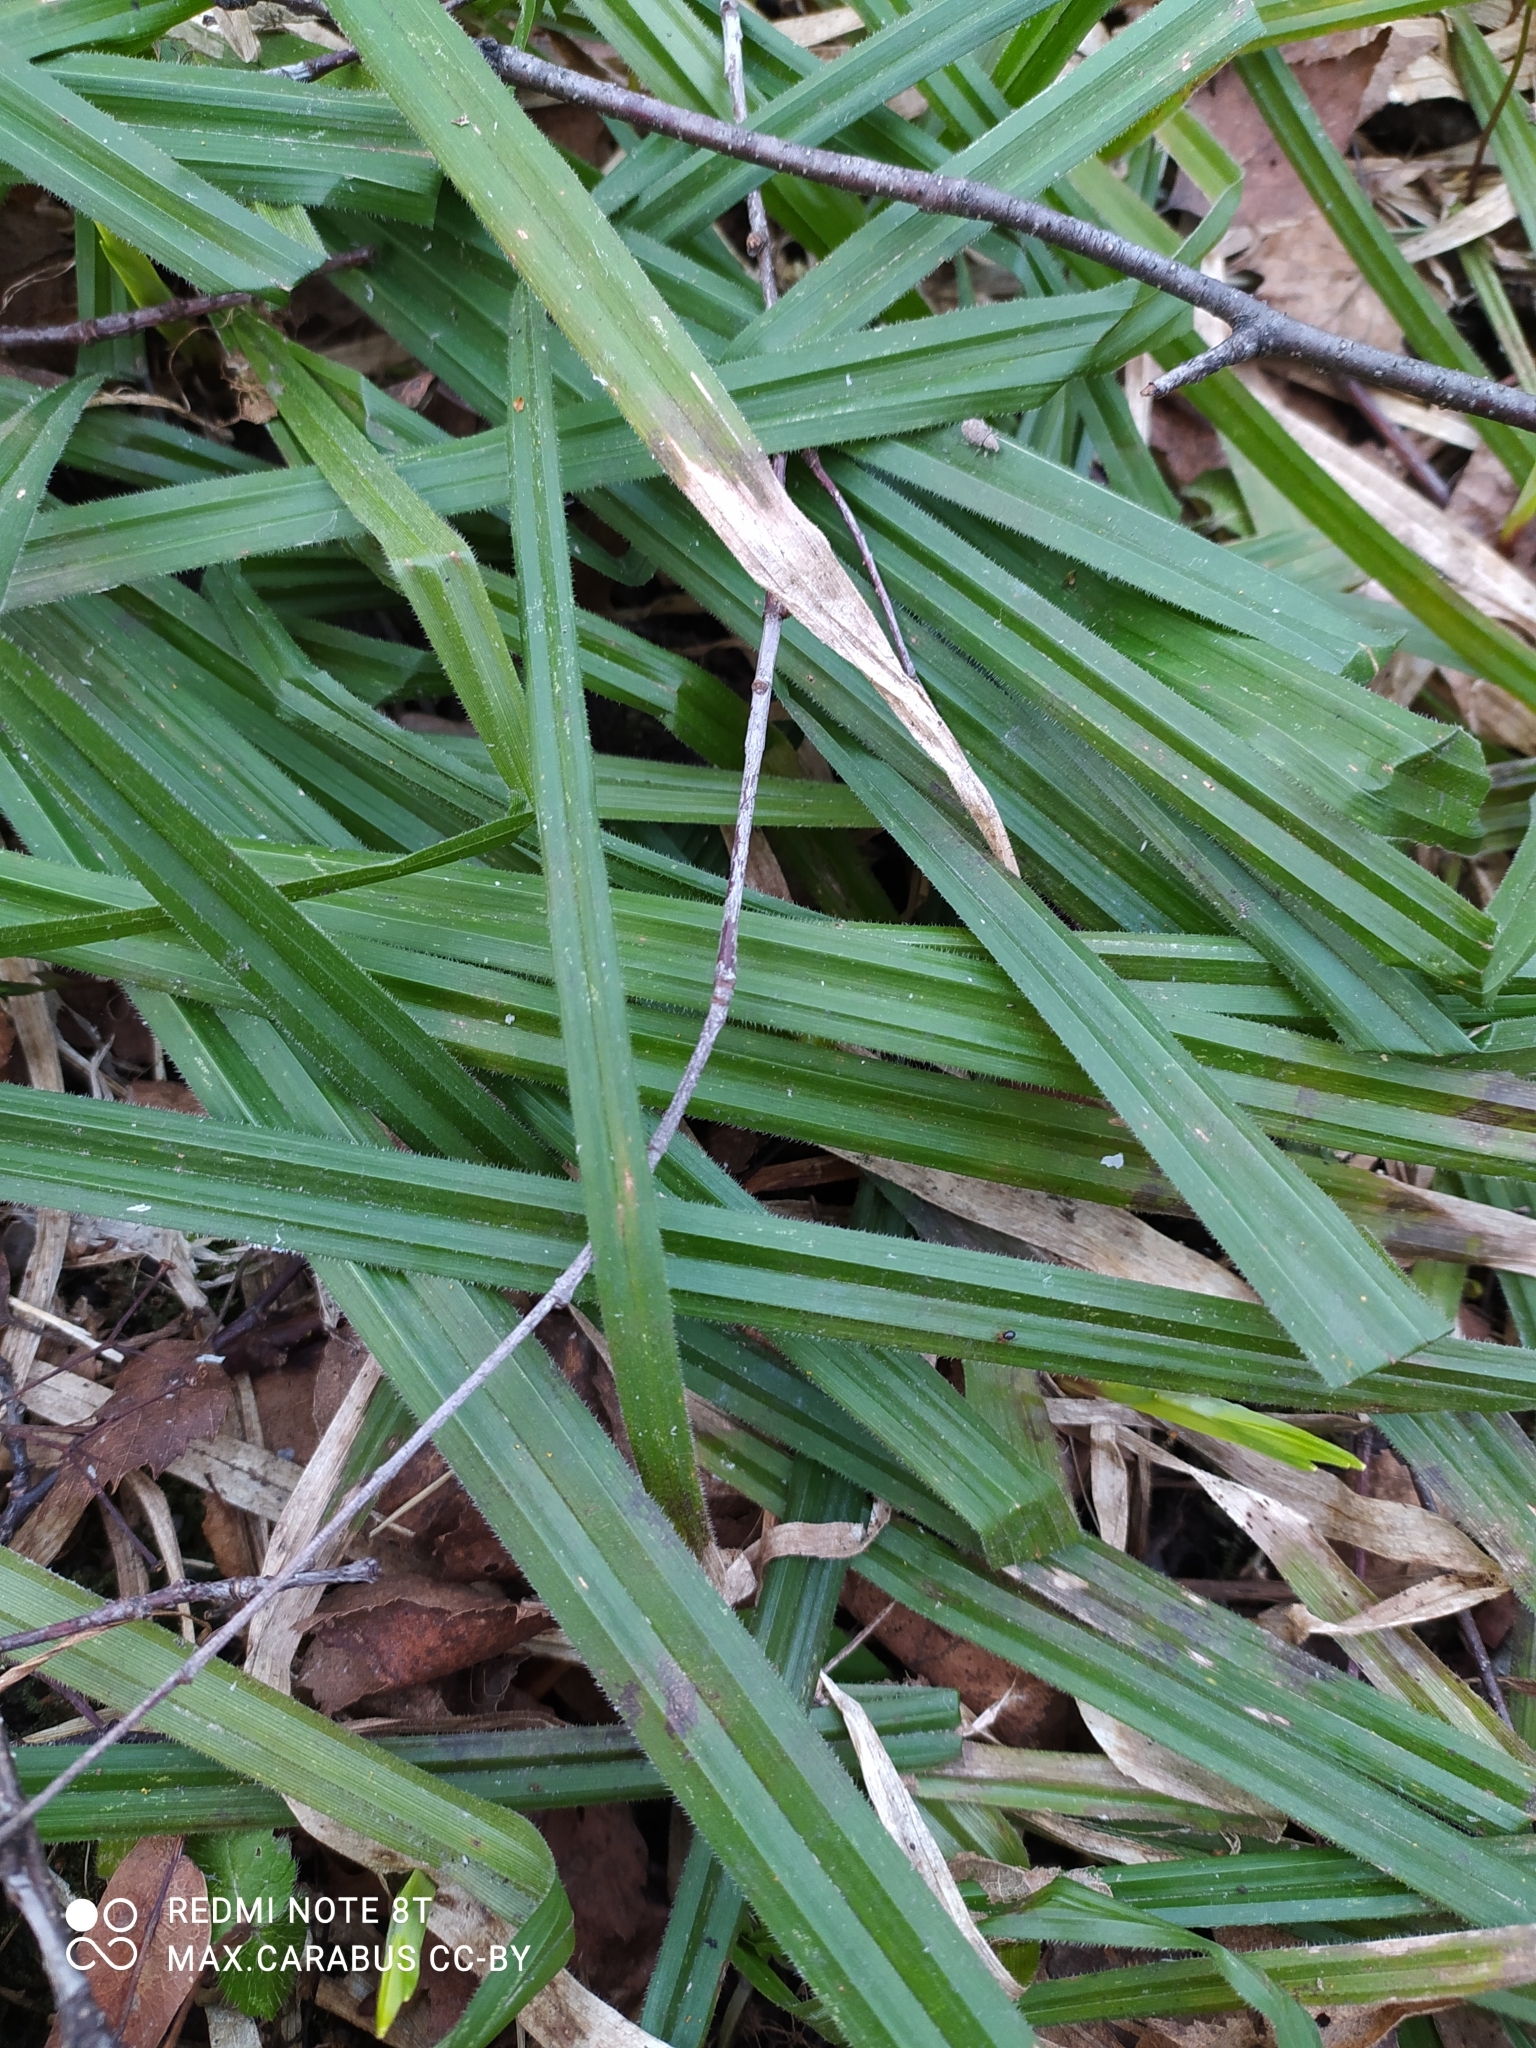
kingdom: Plantae
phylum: Tracheophyta
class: Liliopsida
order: Poales
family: Cyperaceae
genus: Carex
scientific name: Carex pilosa
